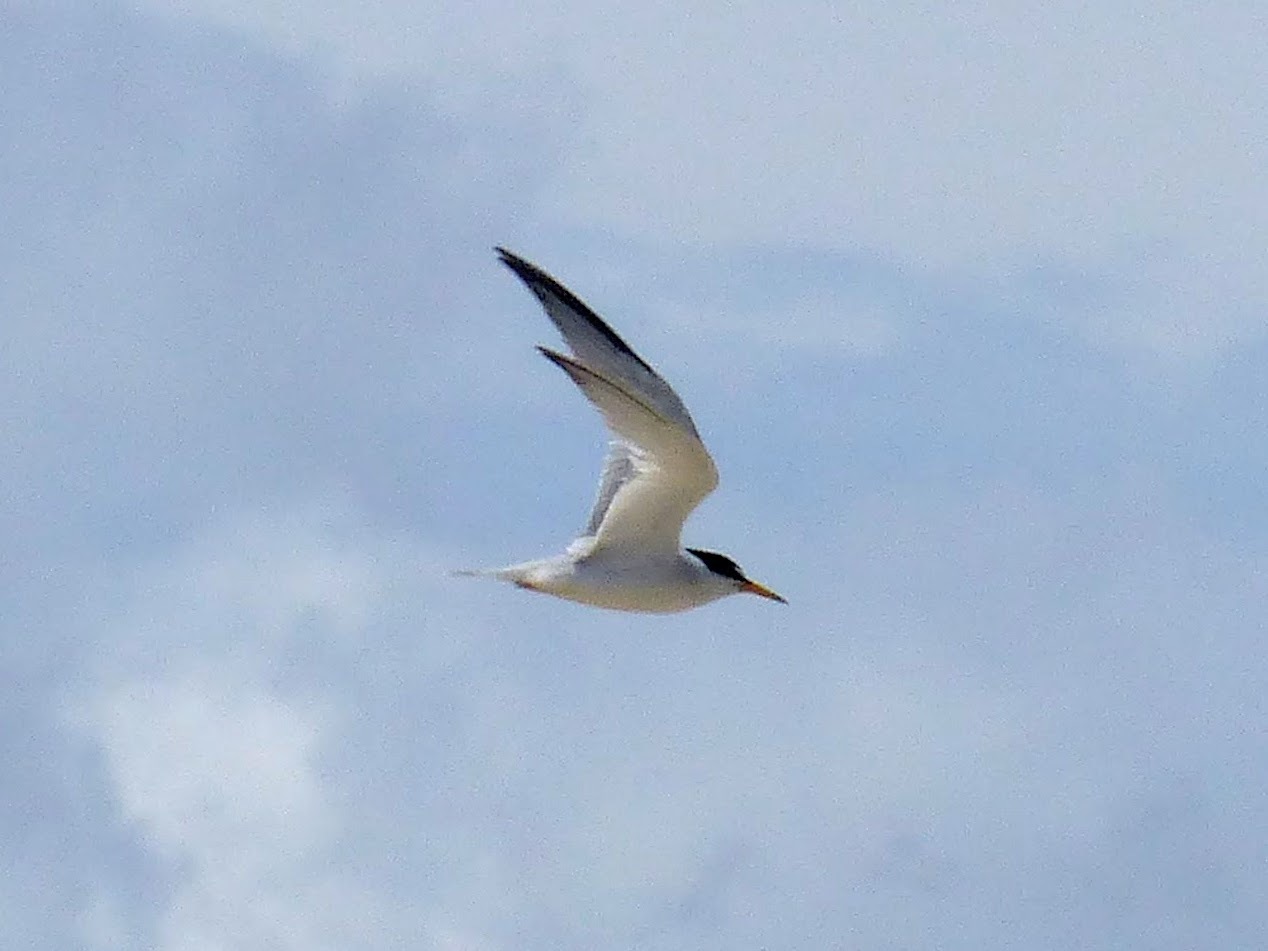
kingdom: Animalia
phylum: Chordata
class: Aves
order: Charadriiformes
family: Laridae
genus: Sternula
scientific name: Sternula antillarum
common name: Least tern
